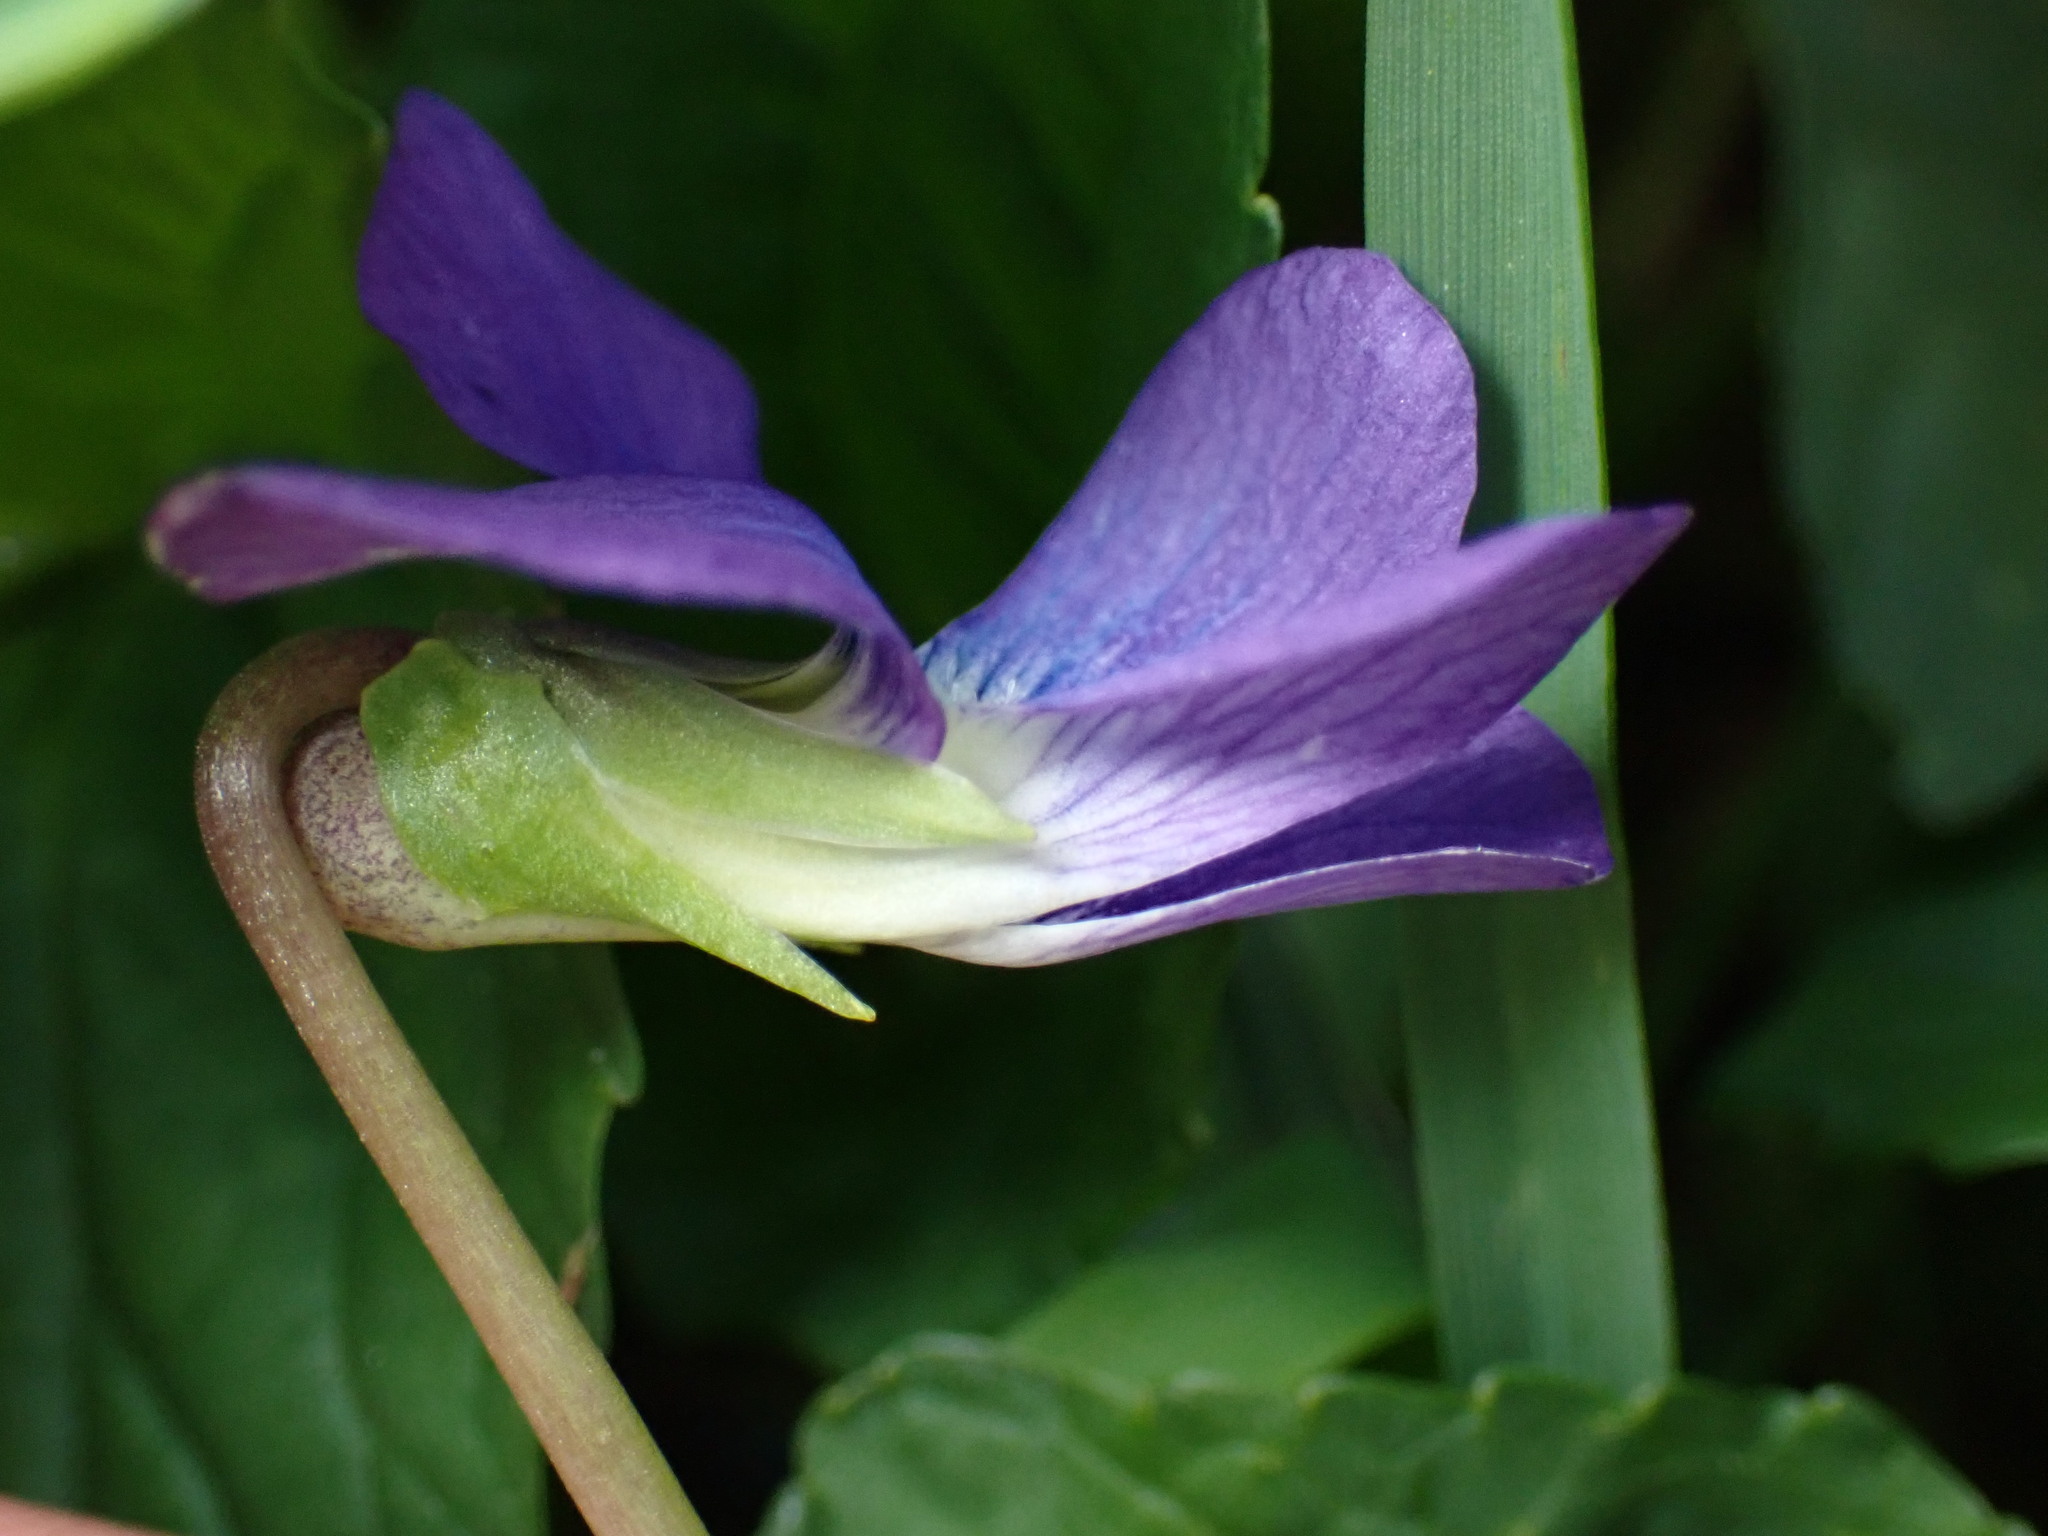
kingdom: Plantae
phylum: Tracheophyta
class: Magnoliopsida
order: Malpighiales
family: Violaceae
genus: Viola
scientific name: Viola sororia
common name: Dooryard violet
